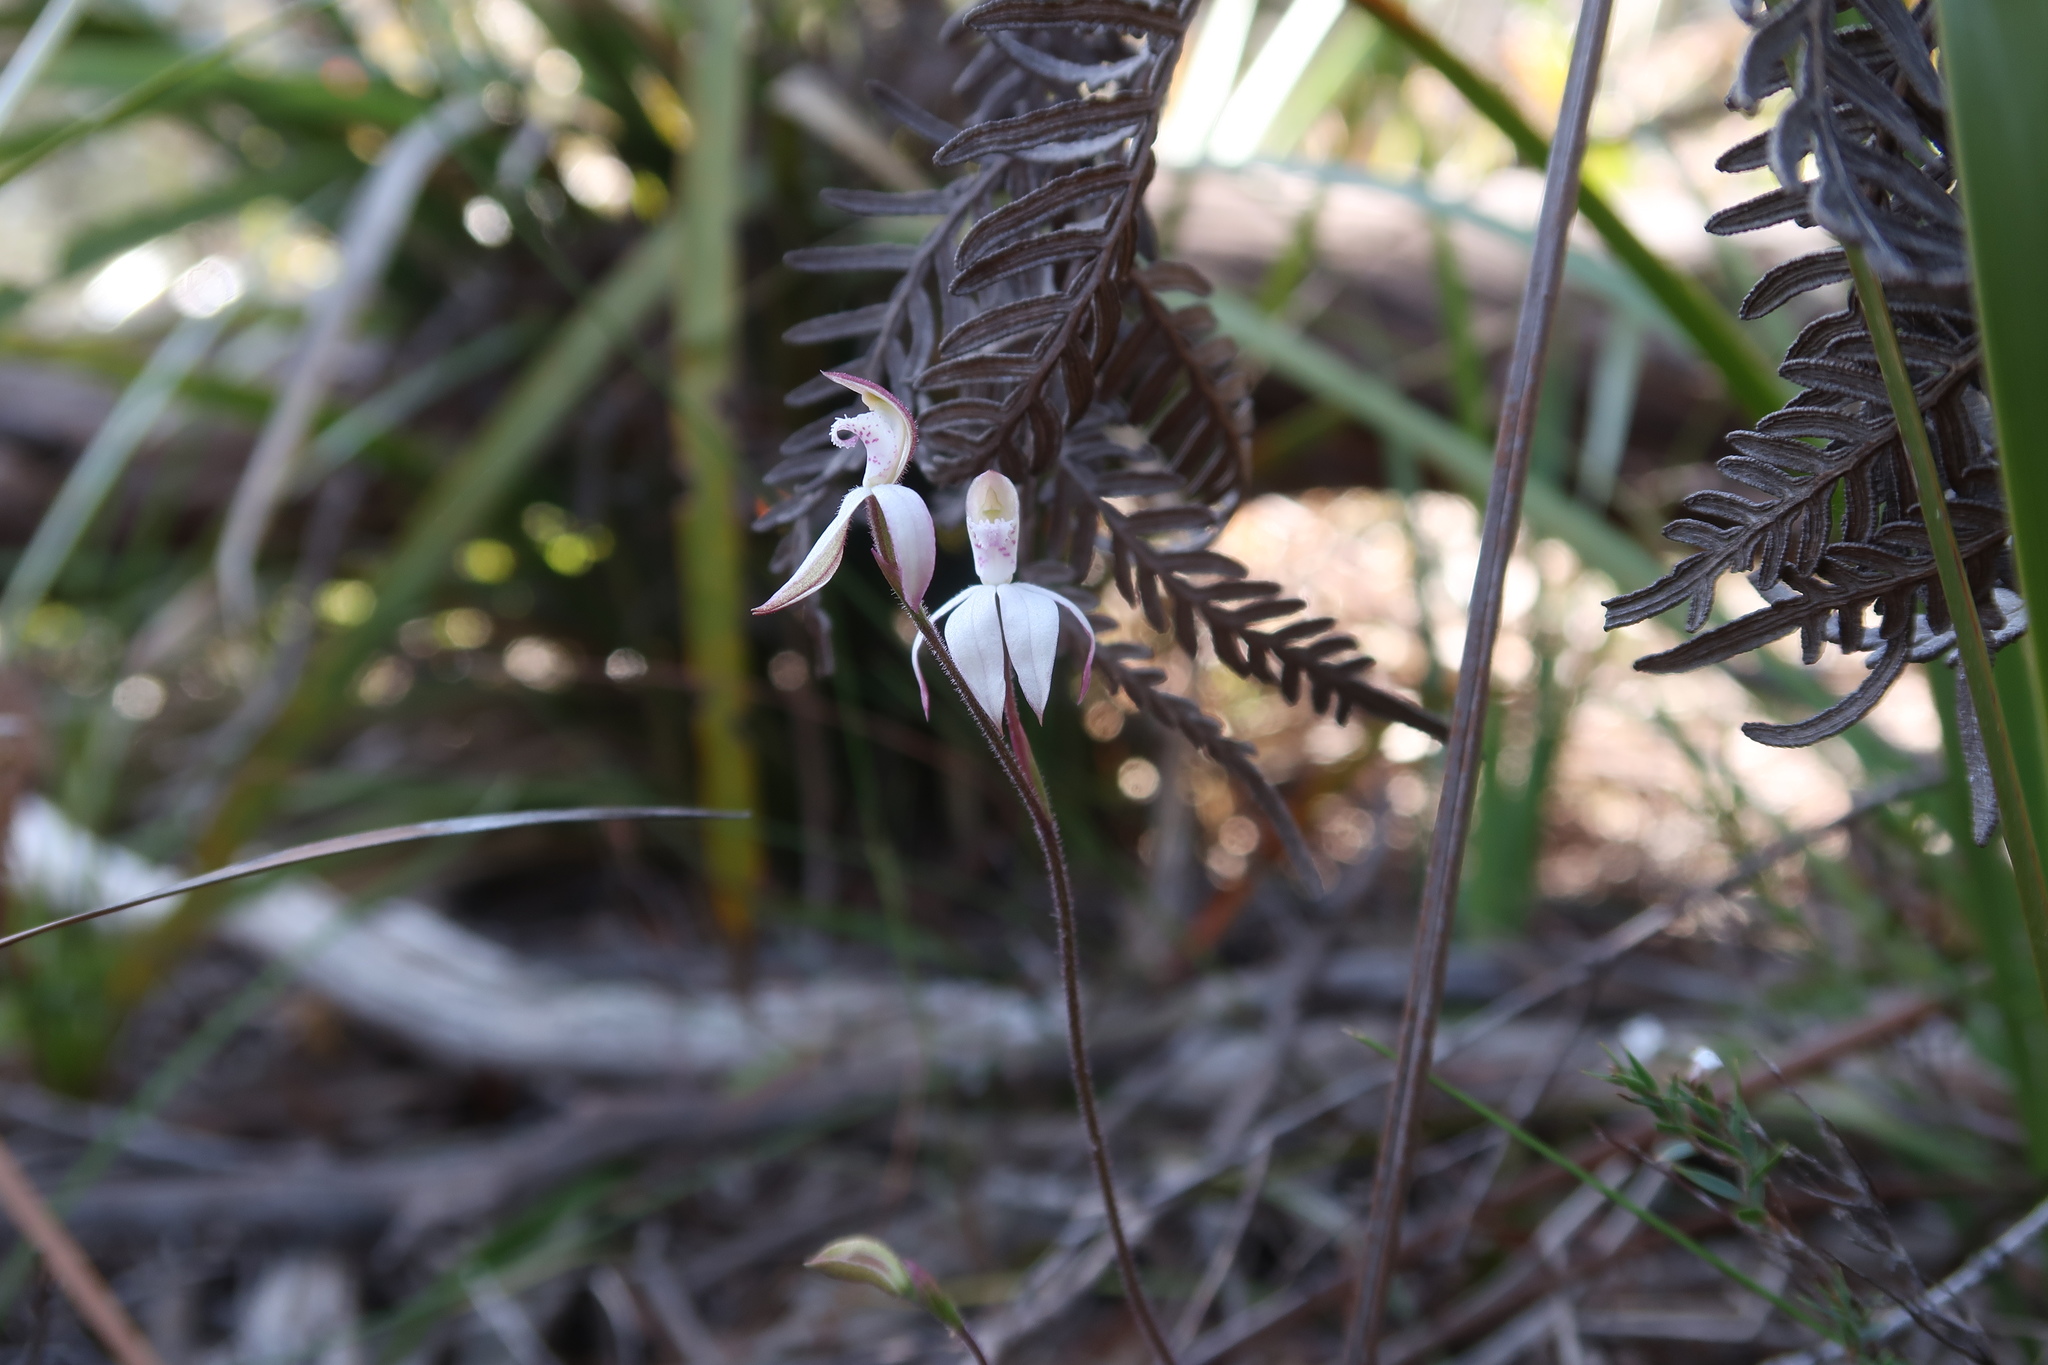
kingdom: Plantae
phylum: Tracheophyta
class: Liliopsida
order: Asparagales
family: Orchidaceae
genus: Caladenia
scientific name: Caladenia gracilis
